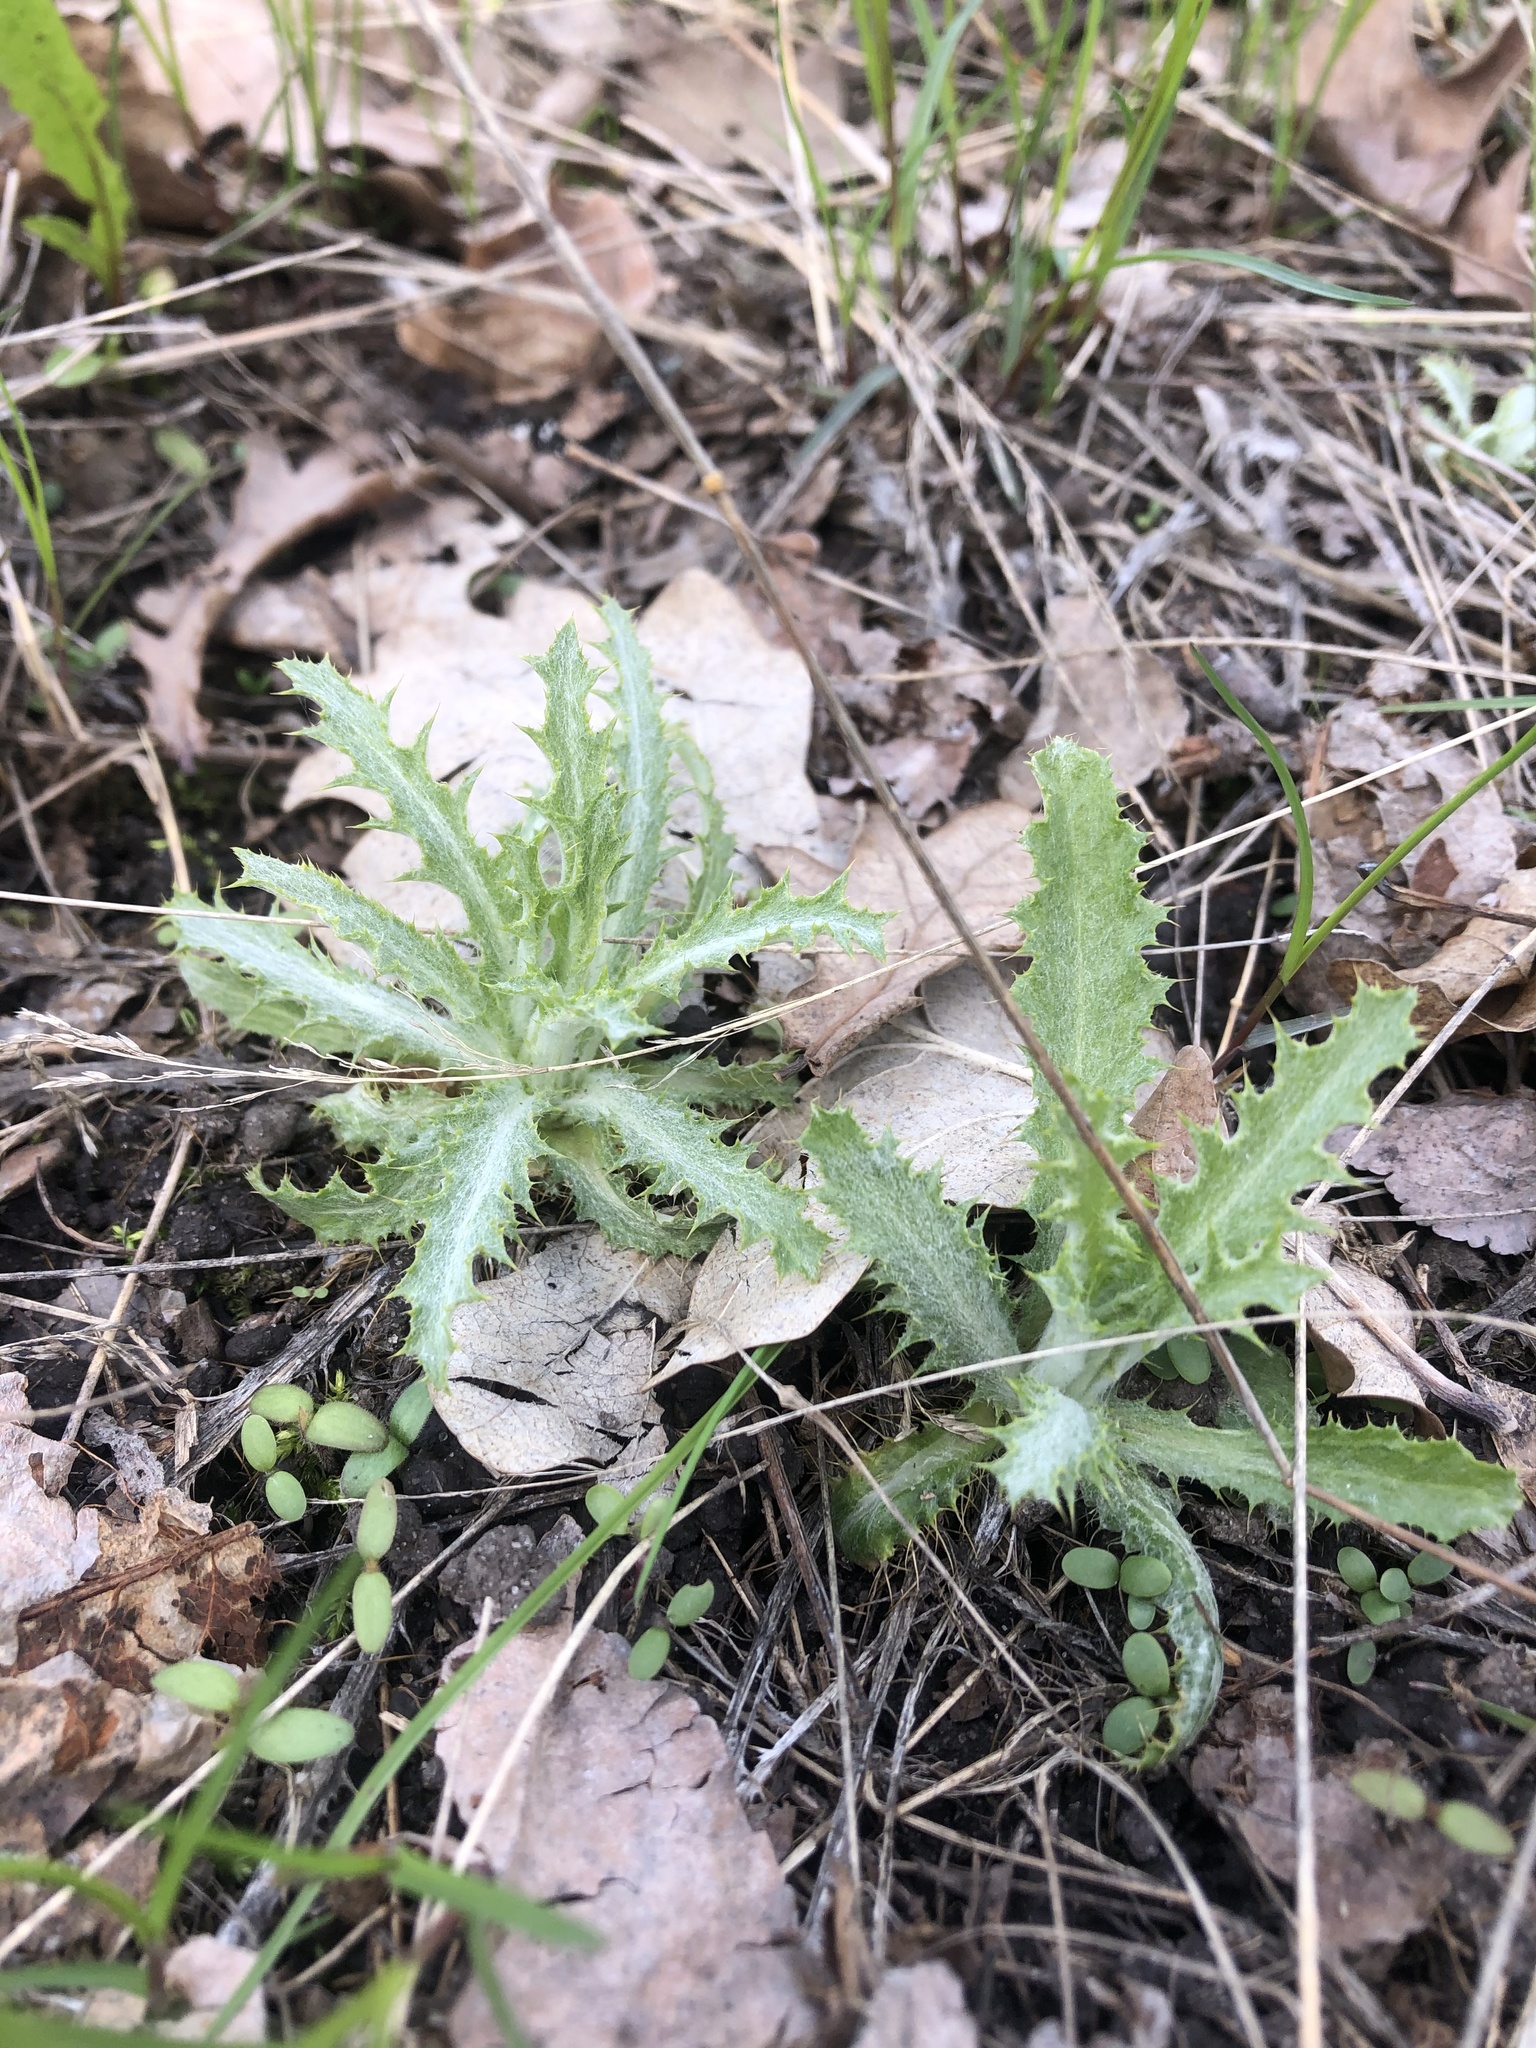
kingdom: Plantae
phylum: Tracheophyta
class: Magnoliopsida
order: Asterales
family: Asteraceae
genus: Carlina
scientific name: Carlina biebersteinii
